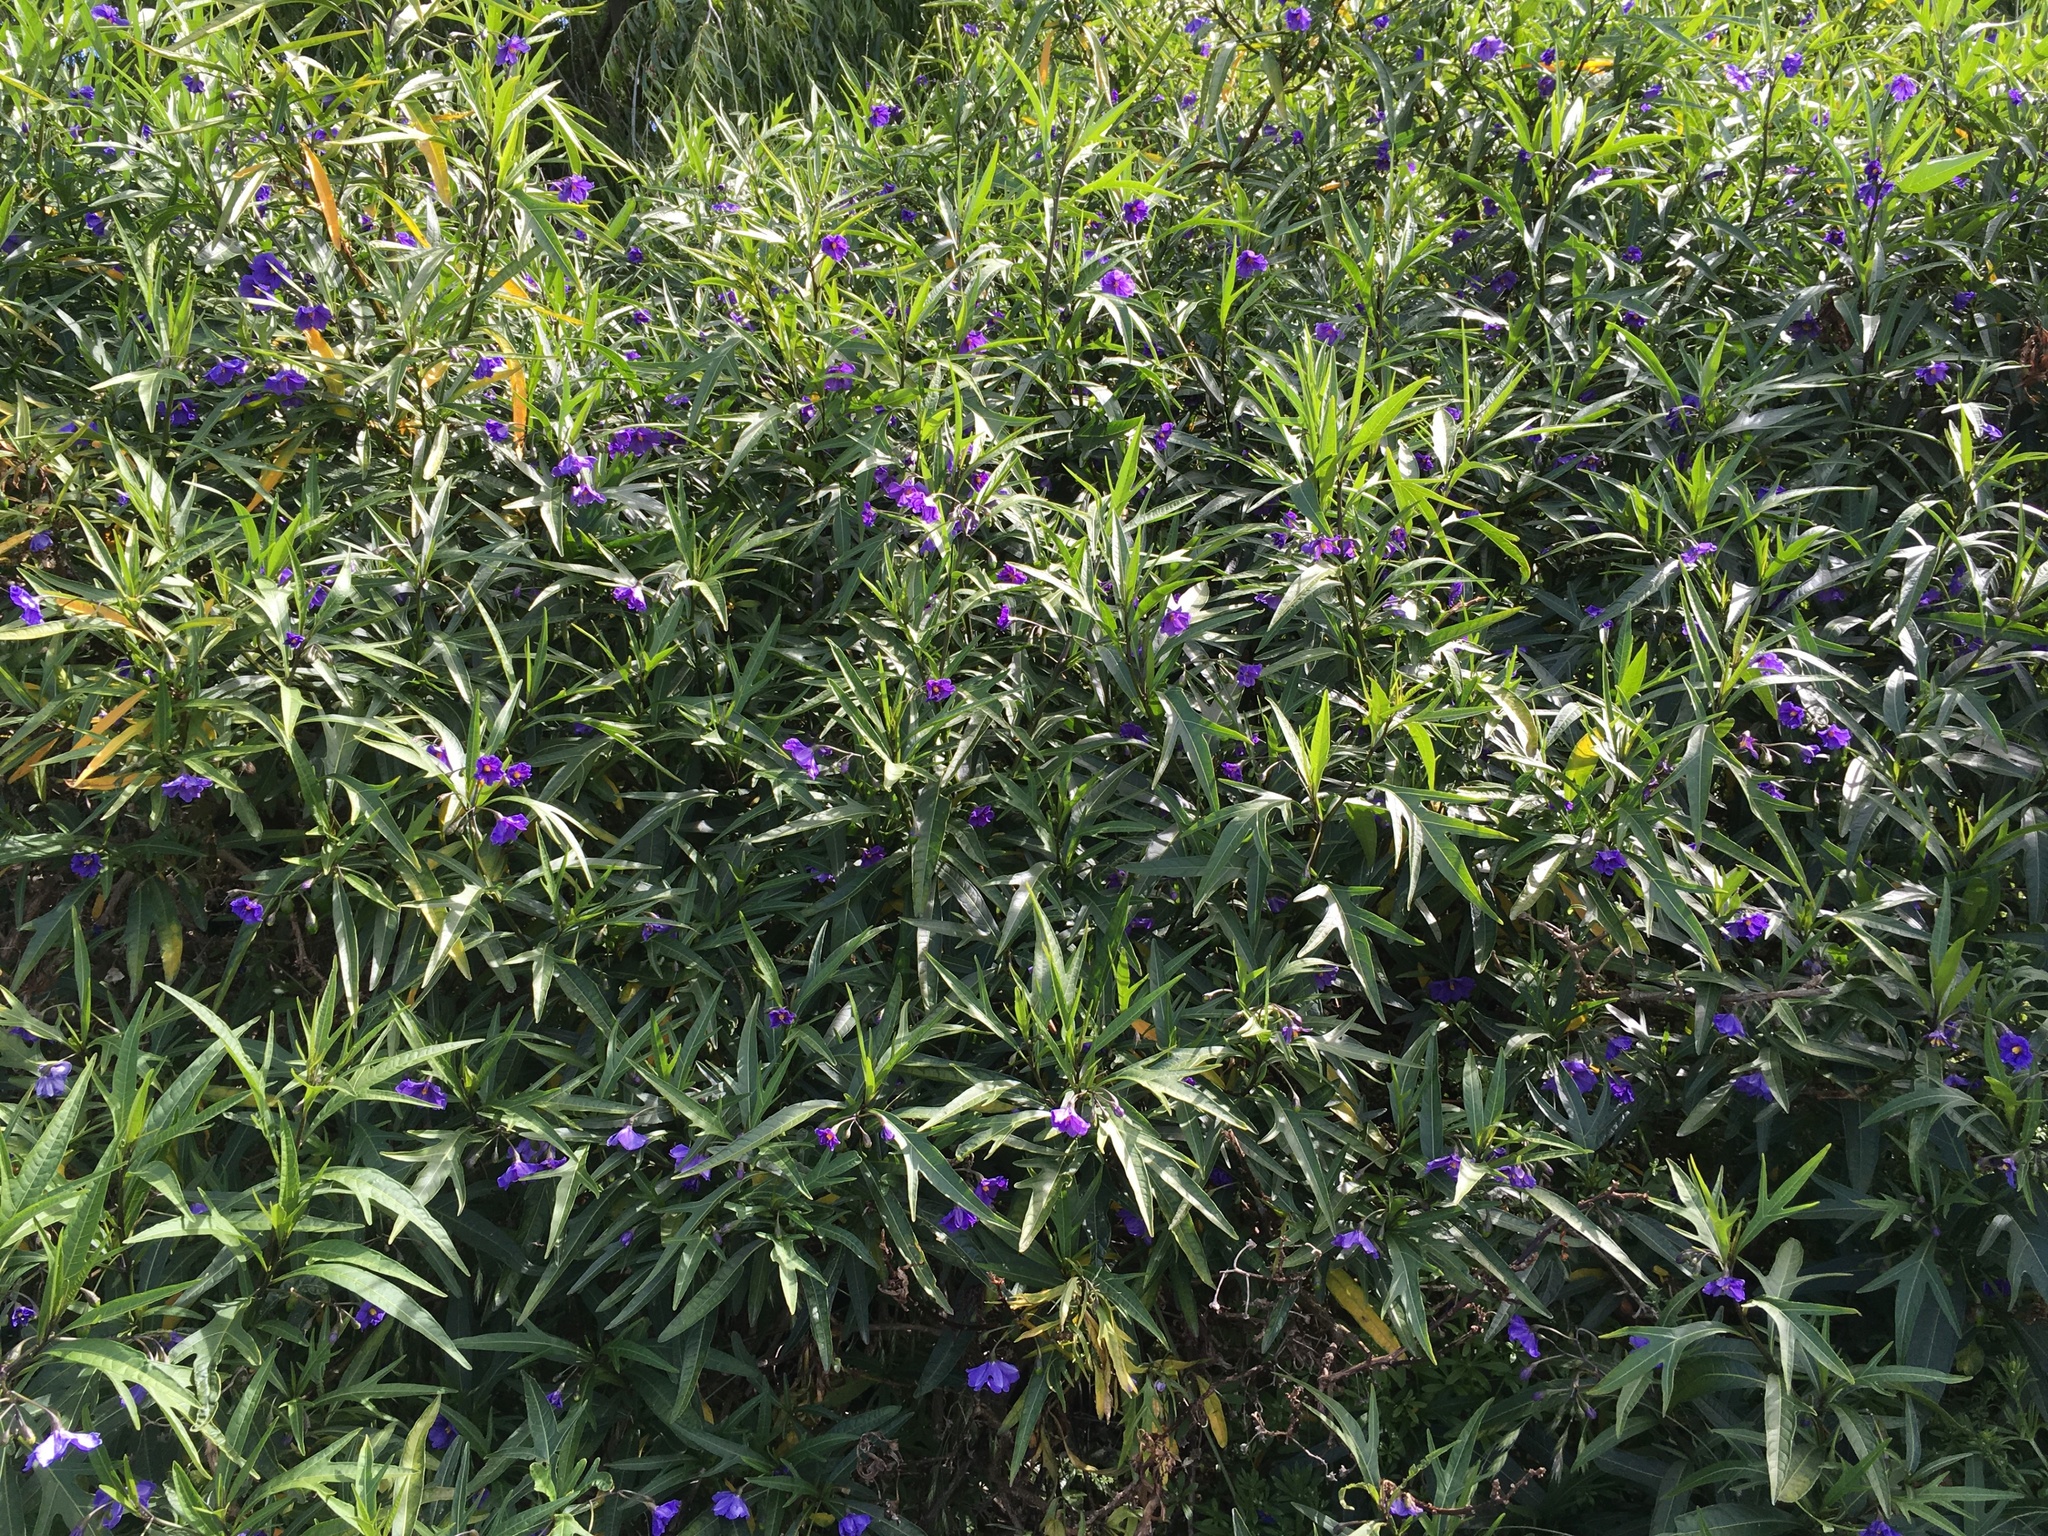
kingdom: Plantae
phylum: Tracheophyta
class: Magnoliopsida
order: Solanales
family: Solanaceae
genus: Solanum
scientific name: Solanum laciniatum
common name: Kangaroo-apple
